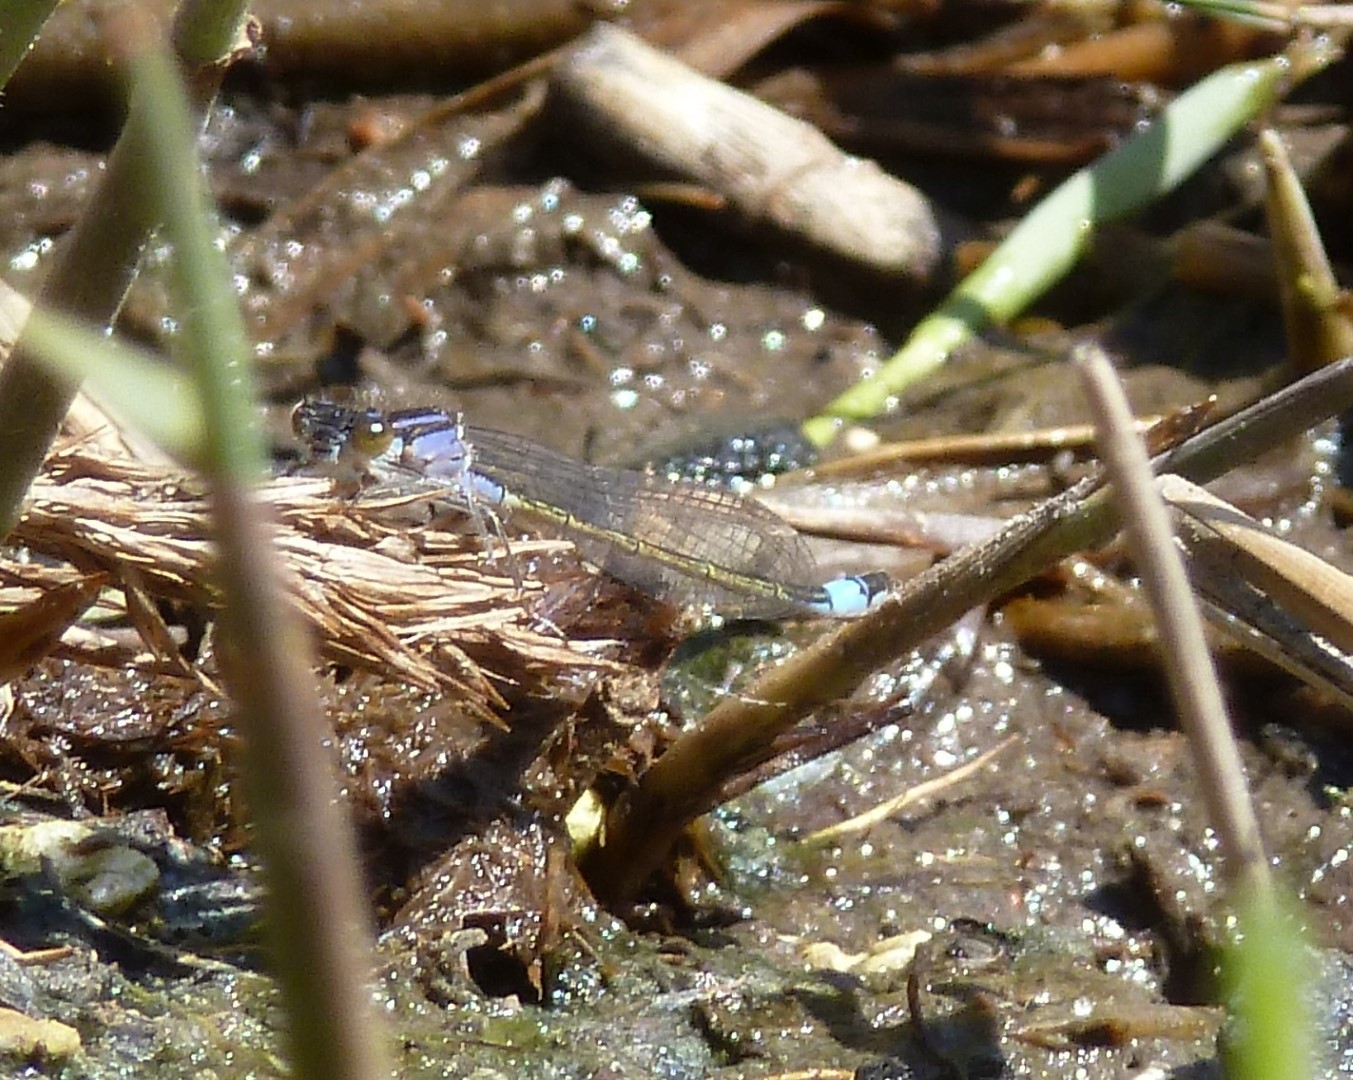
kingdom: Animalia
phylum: Arthropoda
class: Insecta
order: Odonata
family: Coenagrionidae
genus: Ischnura
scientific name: Ischnura elegans
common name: Blue-tailed damselfly
